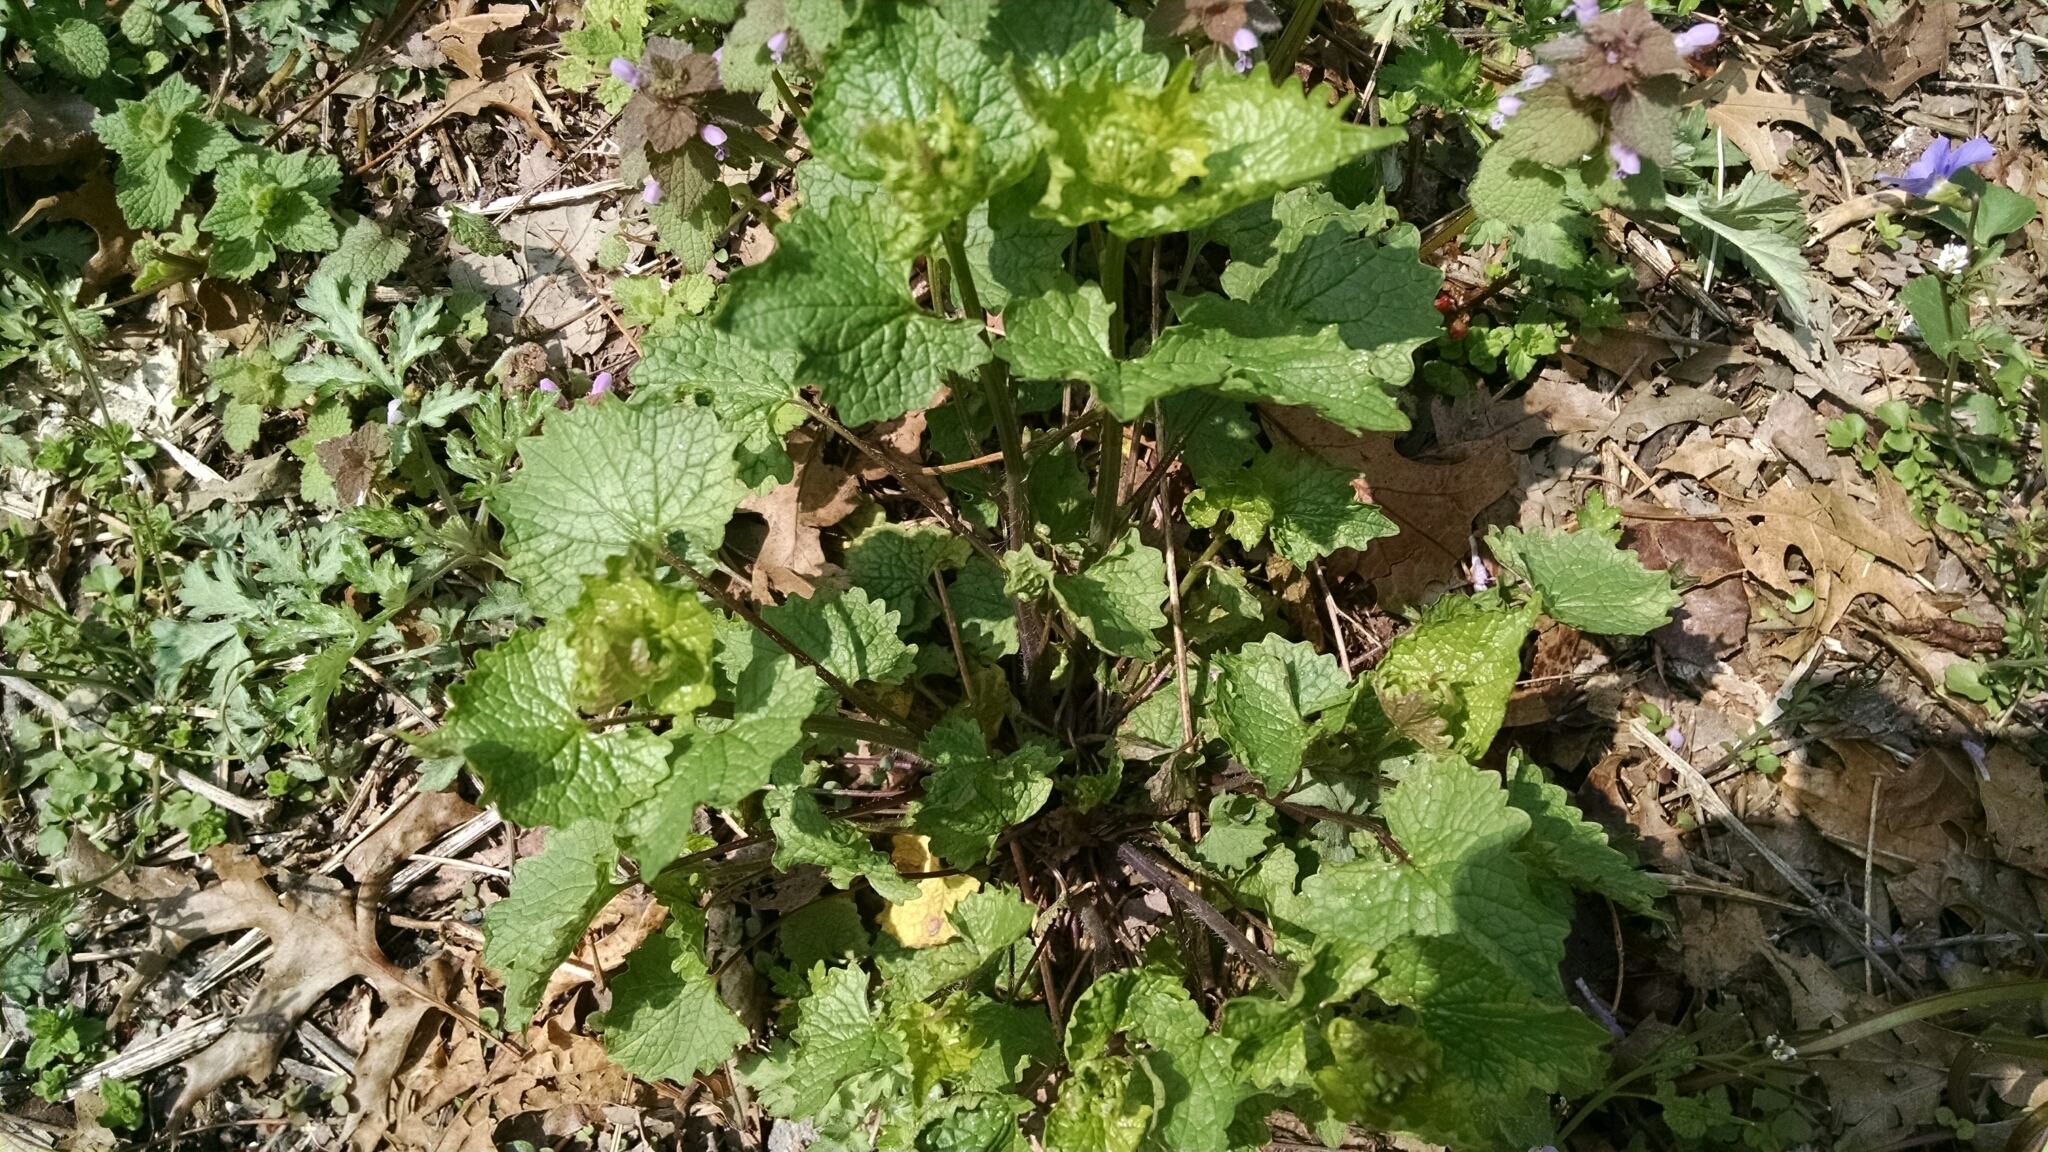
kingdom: Plantae
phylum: Tracheophyta
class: Magnoliopsida
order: Brassicales
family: Brassicaceae
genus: Alliaria
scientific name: Alliaria petiolata
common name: Garlic mustard
